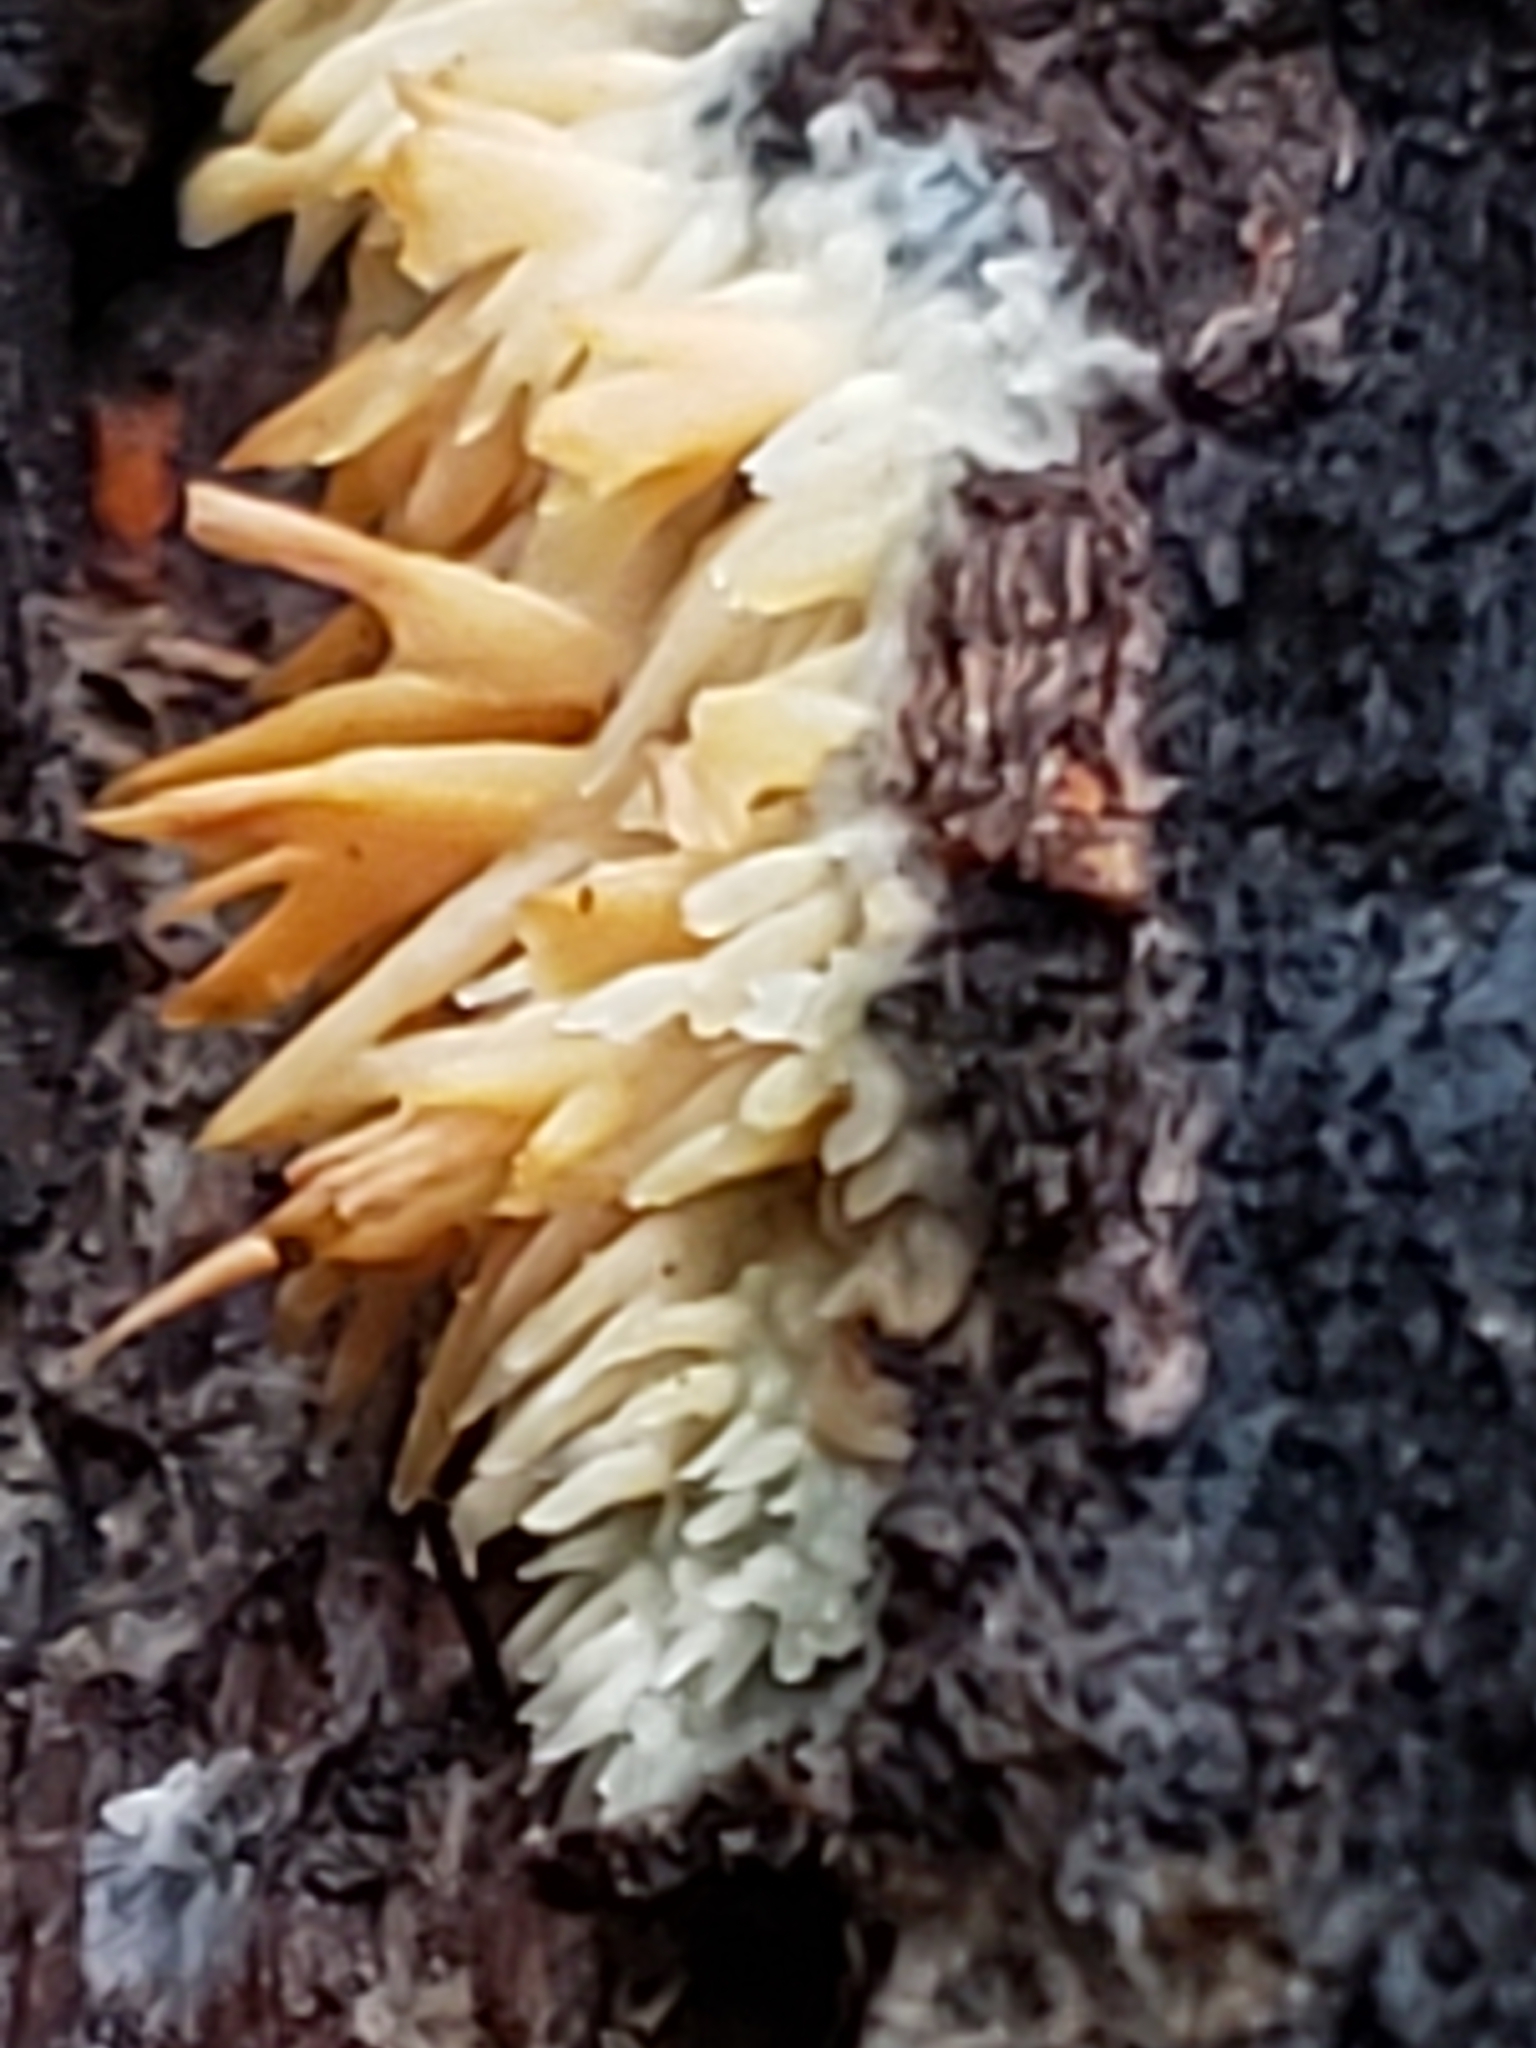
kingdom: Fungi
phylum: Basidiomycota
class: Agaricomycetes
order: Agaricales
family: Radulomycetaceae
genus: Radulomyces
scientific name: Radulomyces copelandii
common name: Asian beauty
